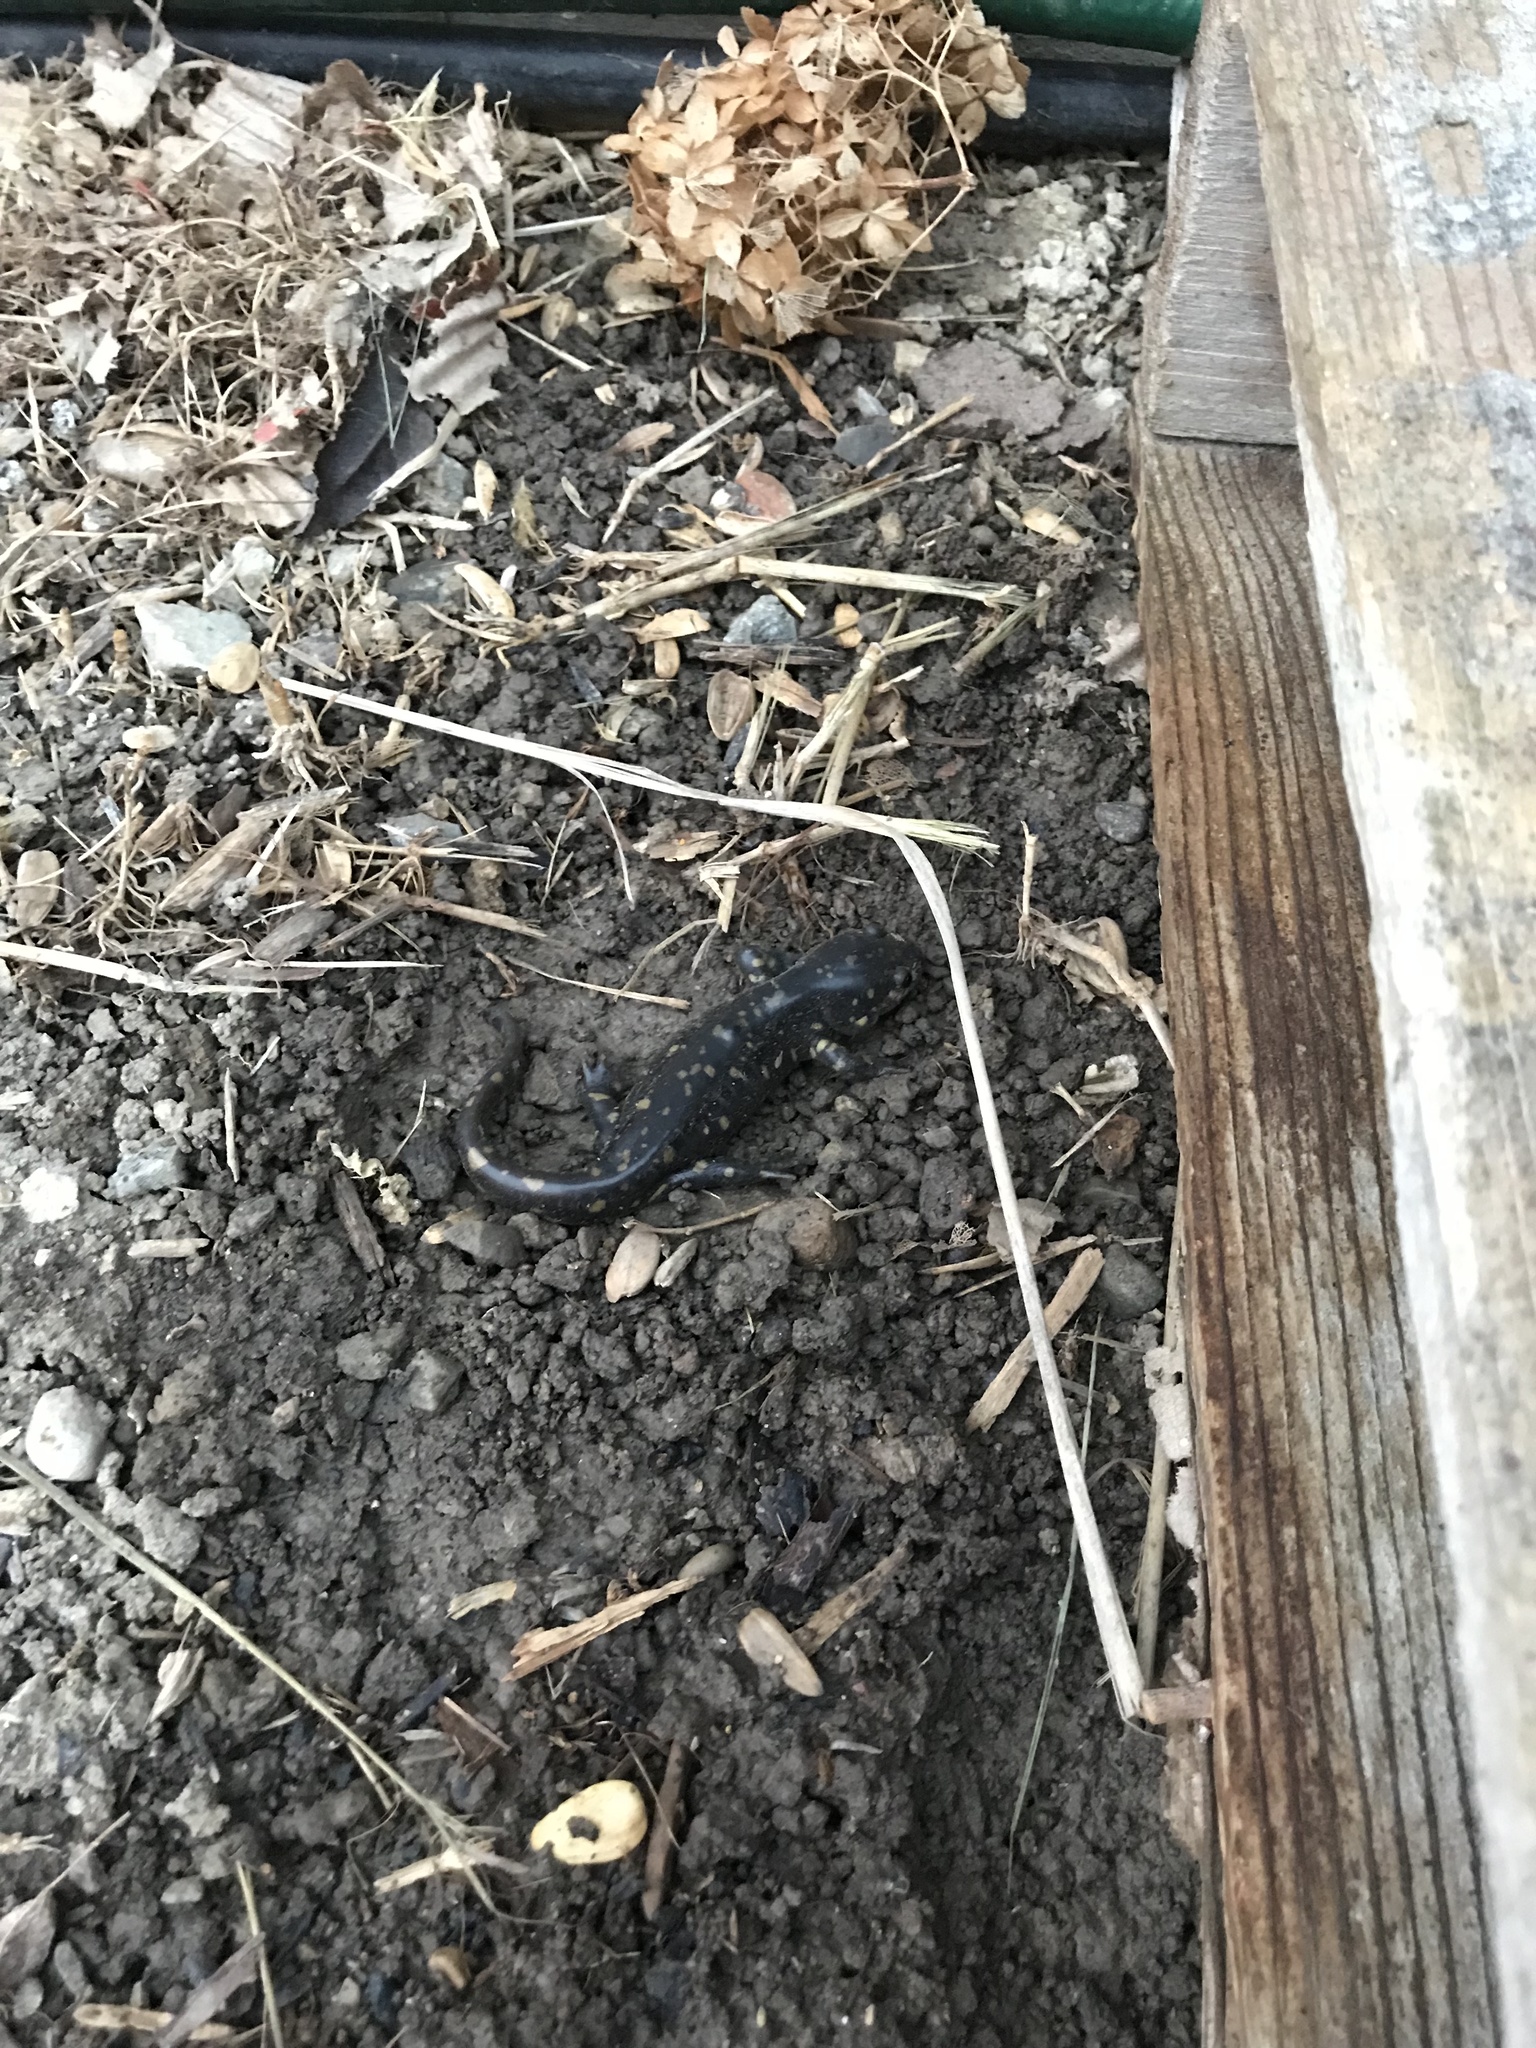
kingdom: Animalia
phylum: Chordata
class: Amphibia
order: Caudata
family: Ambystomatidae
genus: Ambystoma
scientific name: Ambystoma tigrinum
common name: Tiger salamander
